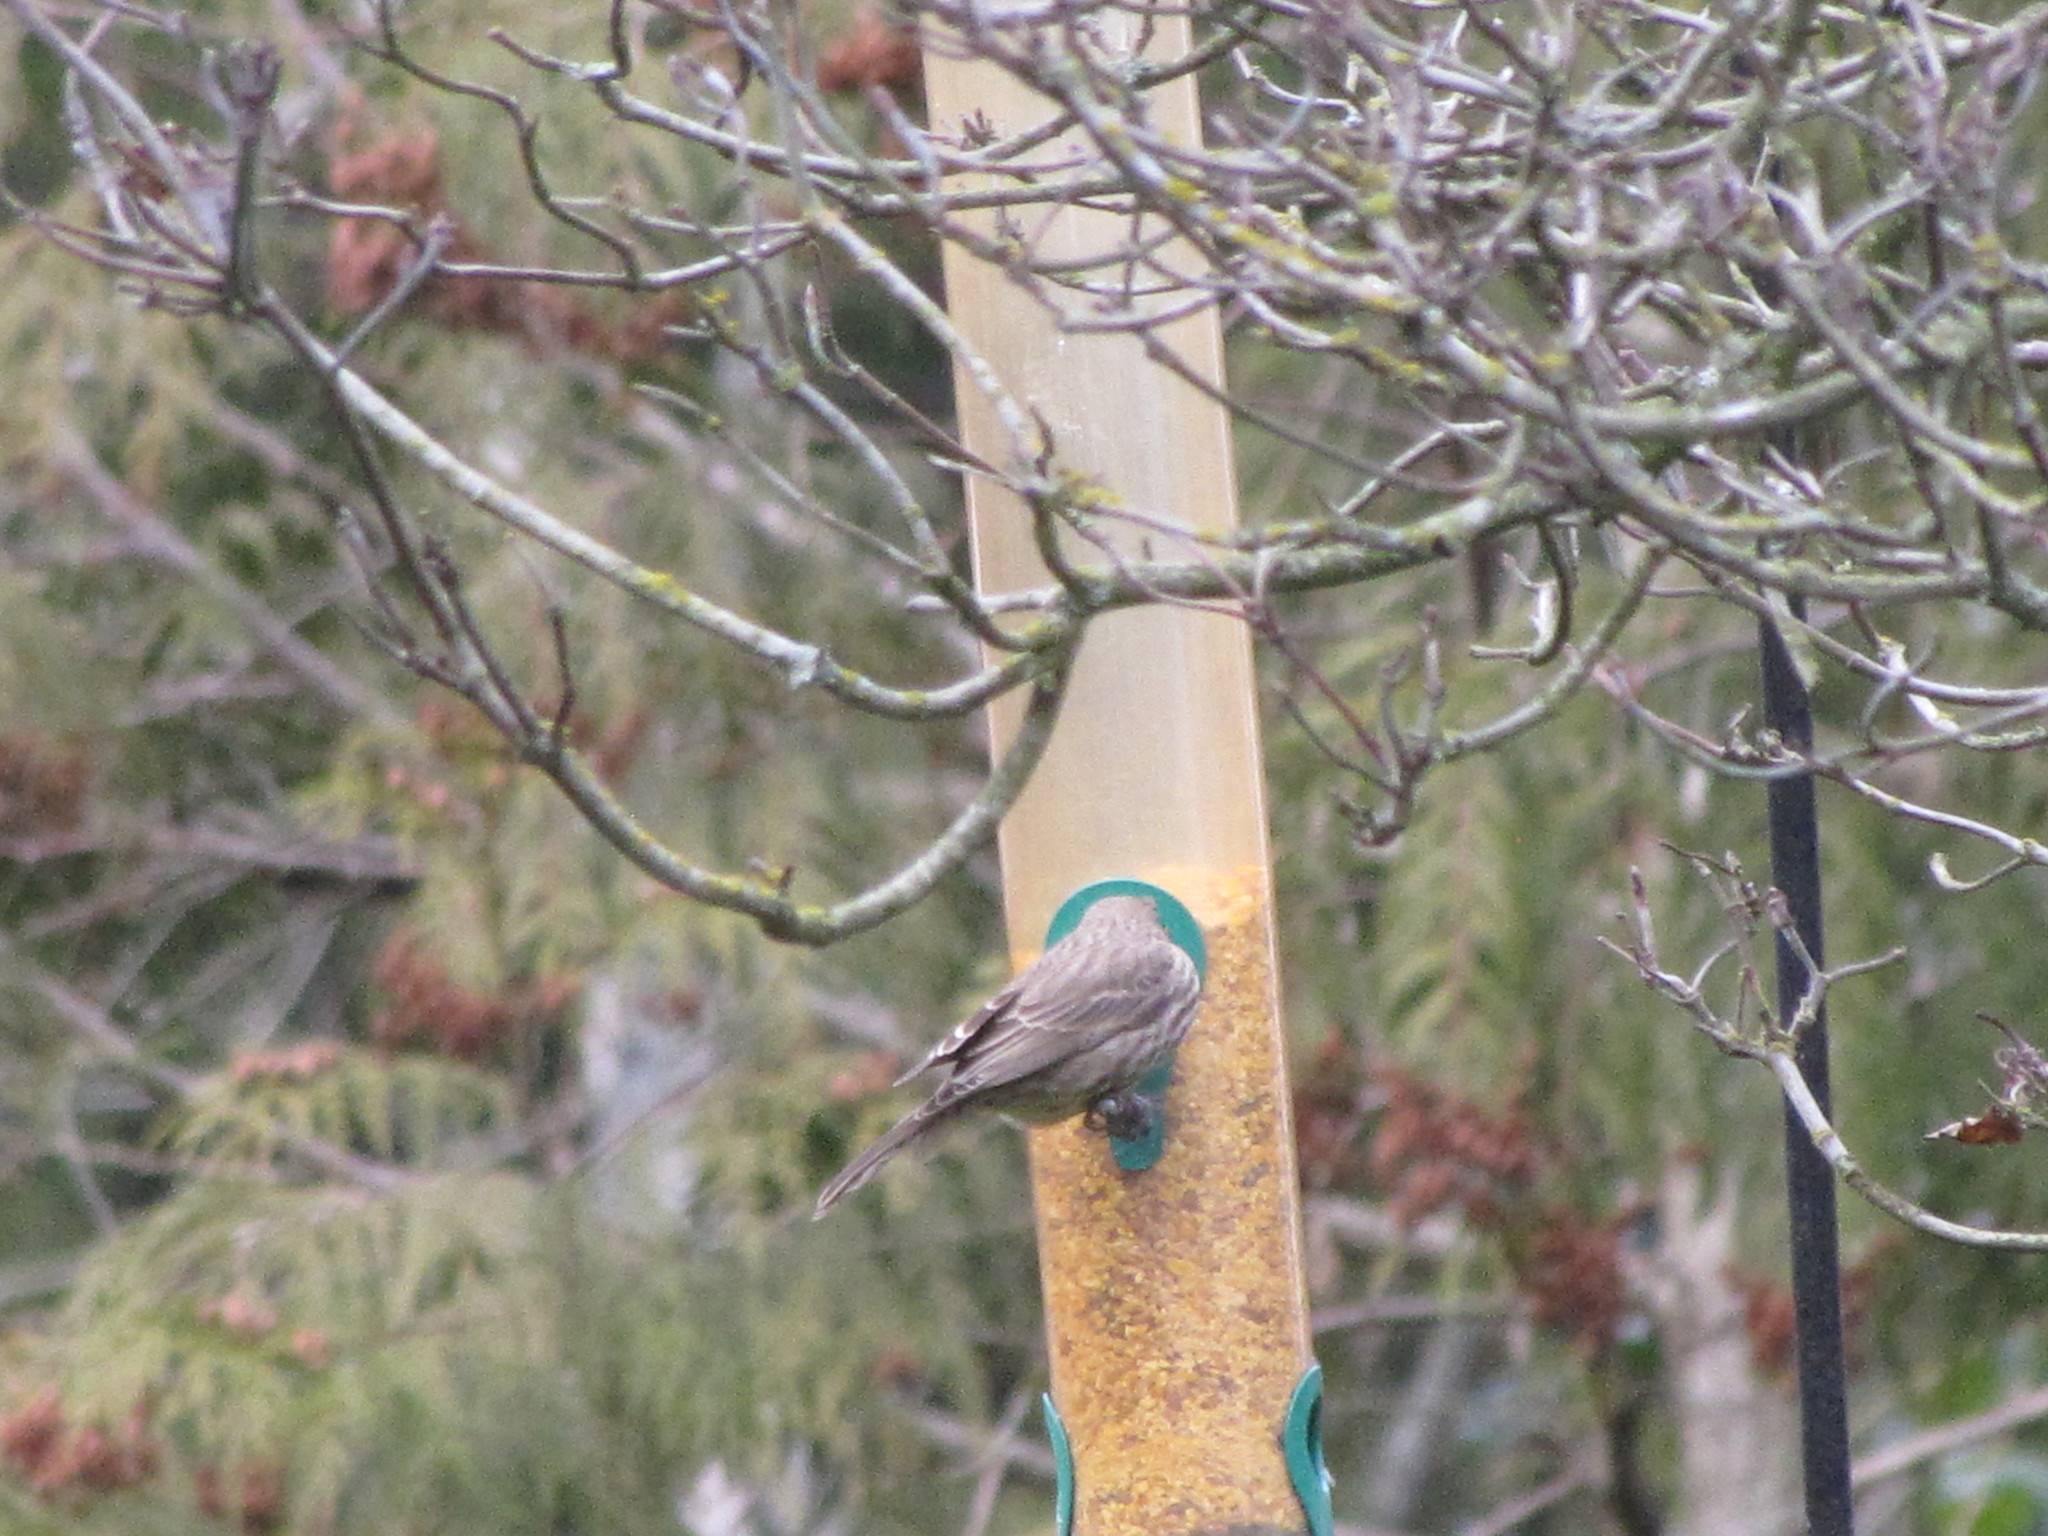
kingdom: Animalia
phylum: Chordata
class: Aves
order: Passeriformes
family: Fringillidae
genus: Haemorhous
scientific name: Haemorhous mexicanus
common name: House finch
